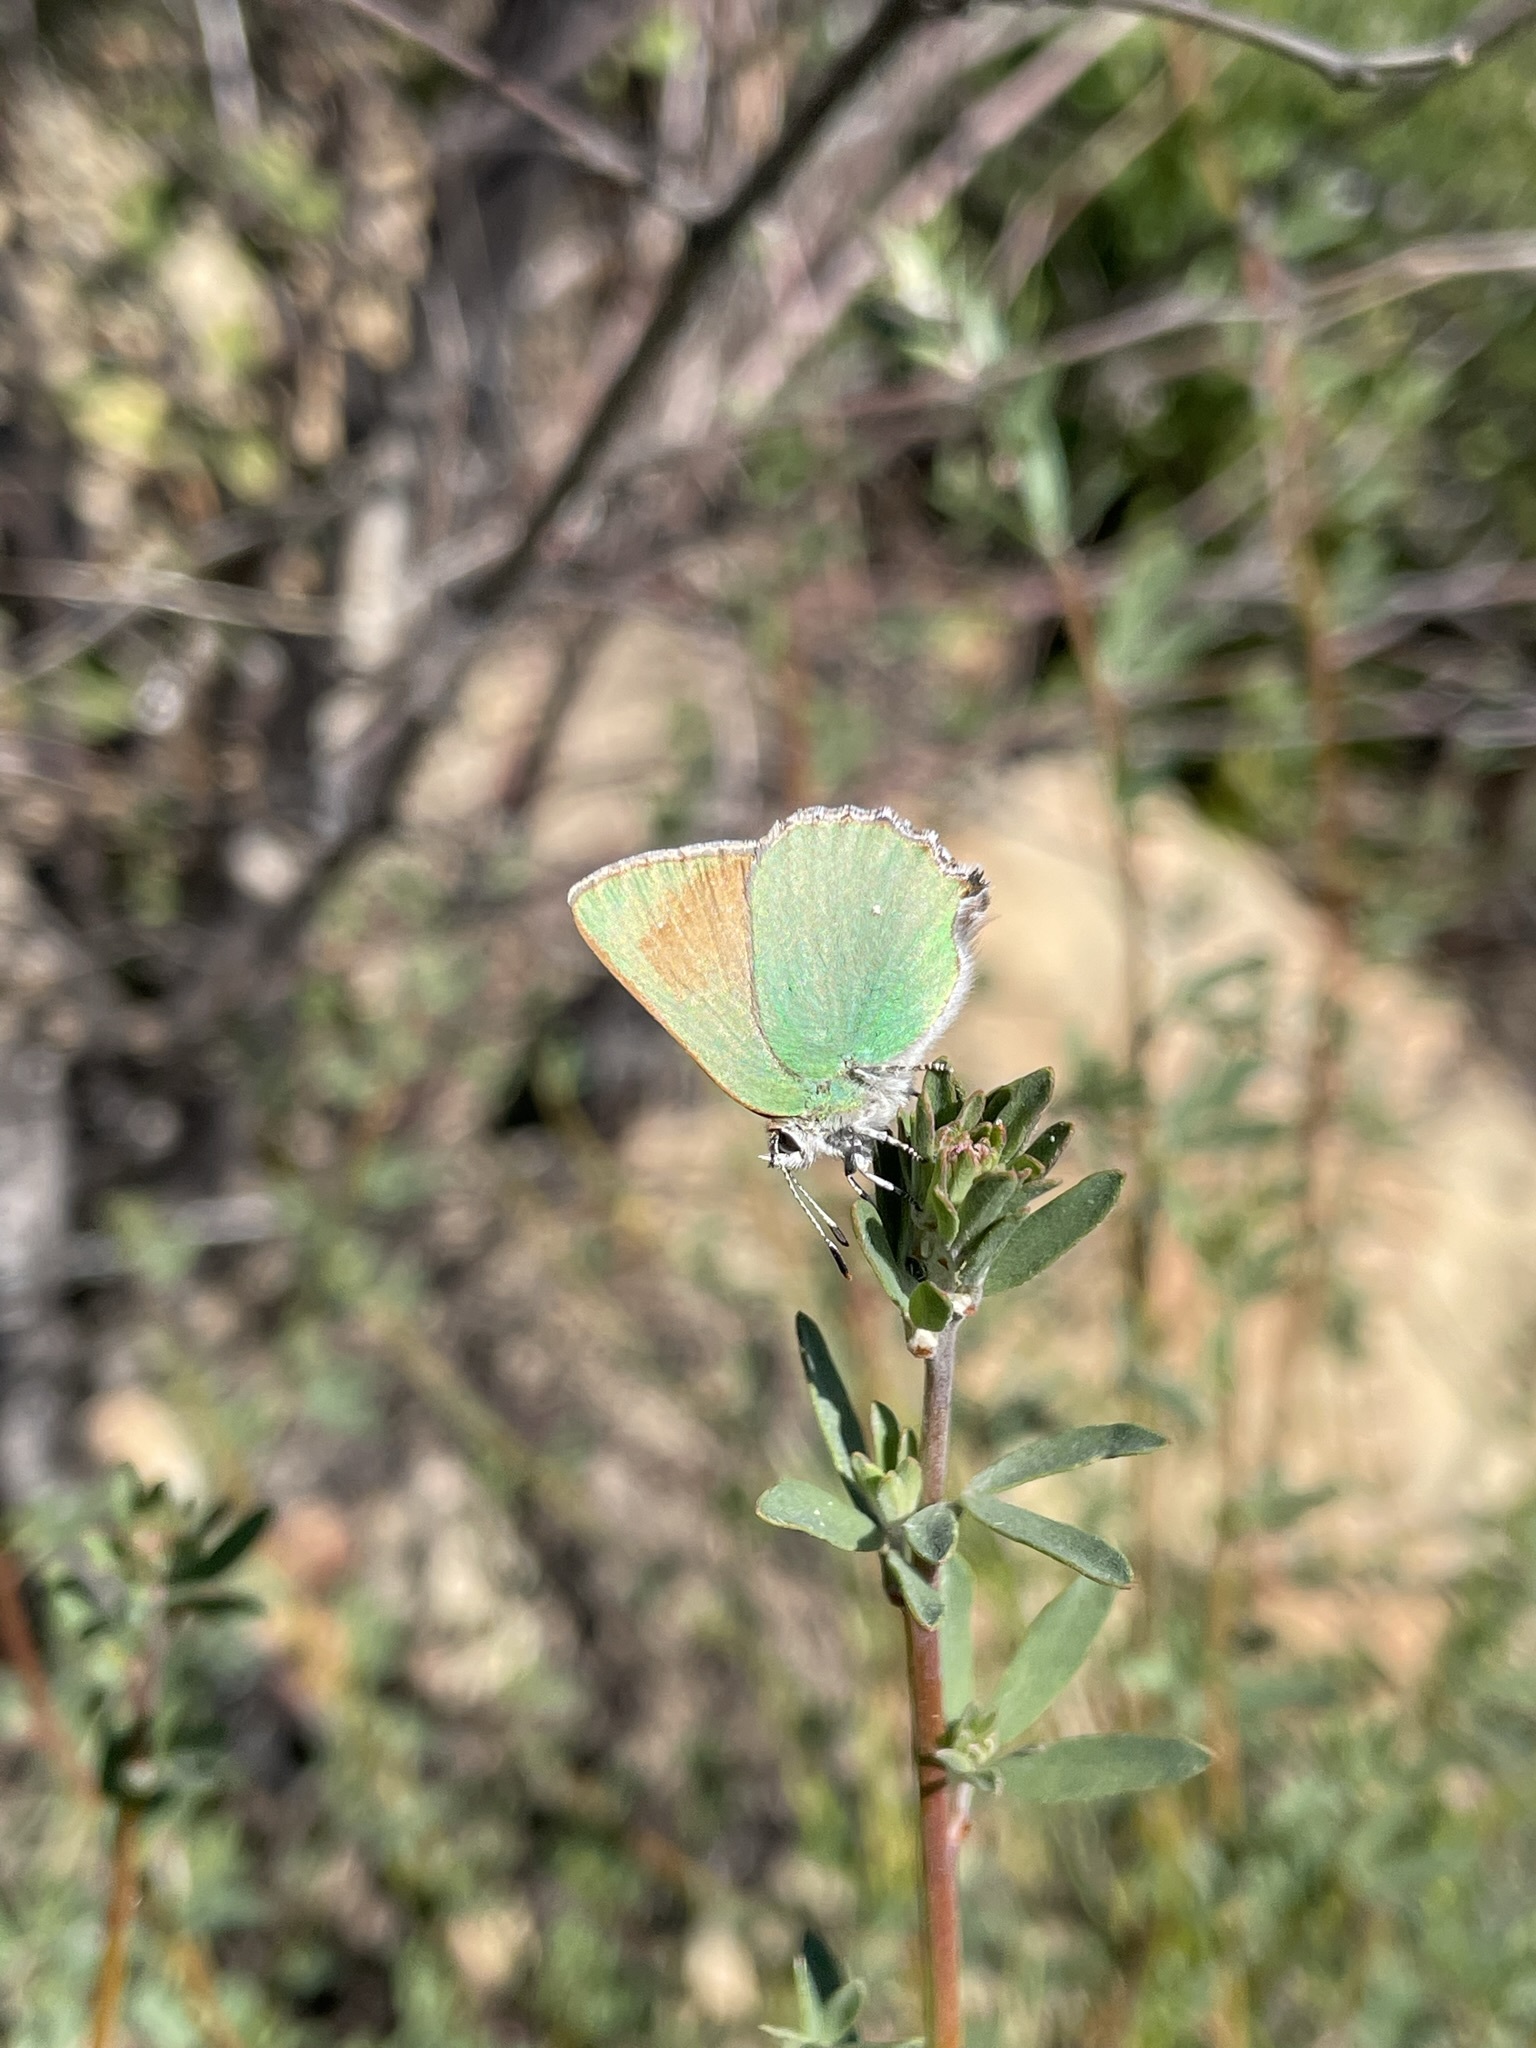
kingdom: Animalia
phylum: Arthropoda
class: Insecta
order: Lepidoptera
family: Lycaenidae
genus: Callophrys
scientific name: Callophrys dumetorum
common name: Bramble hairstreak
